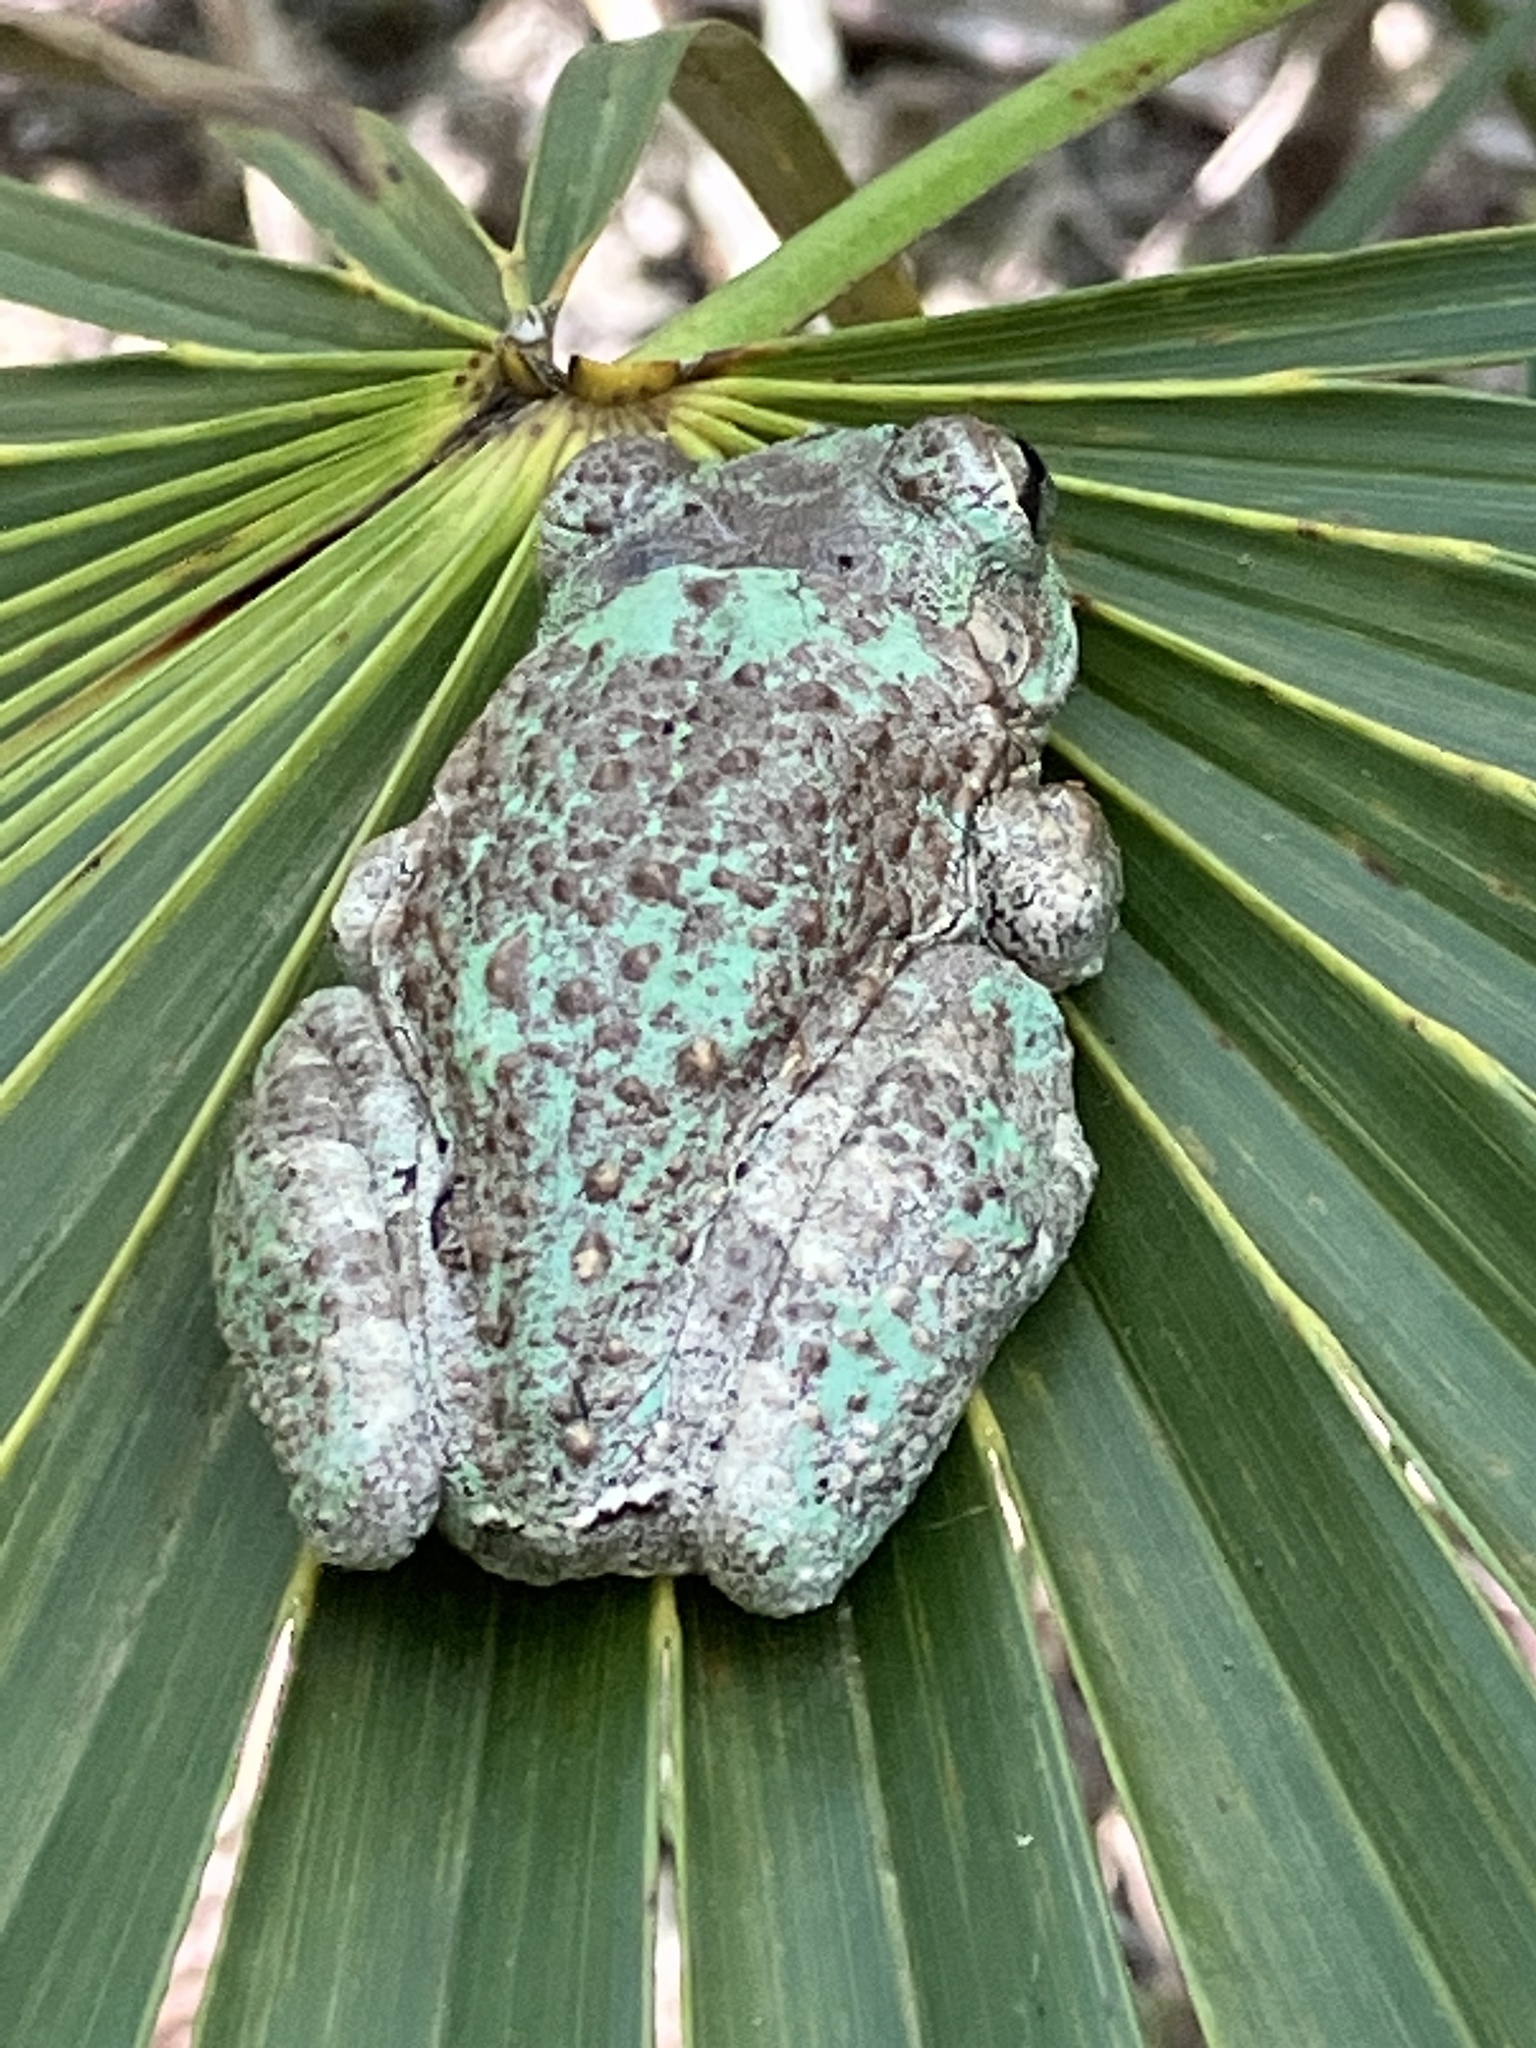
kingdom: Animalia
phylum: Chordata
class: Amphibia
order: Anura
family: Hylidae
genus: Osteopilus
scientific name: Osteopilus septentrionalis
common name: Cuban treefrog
